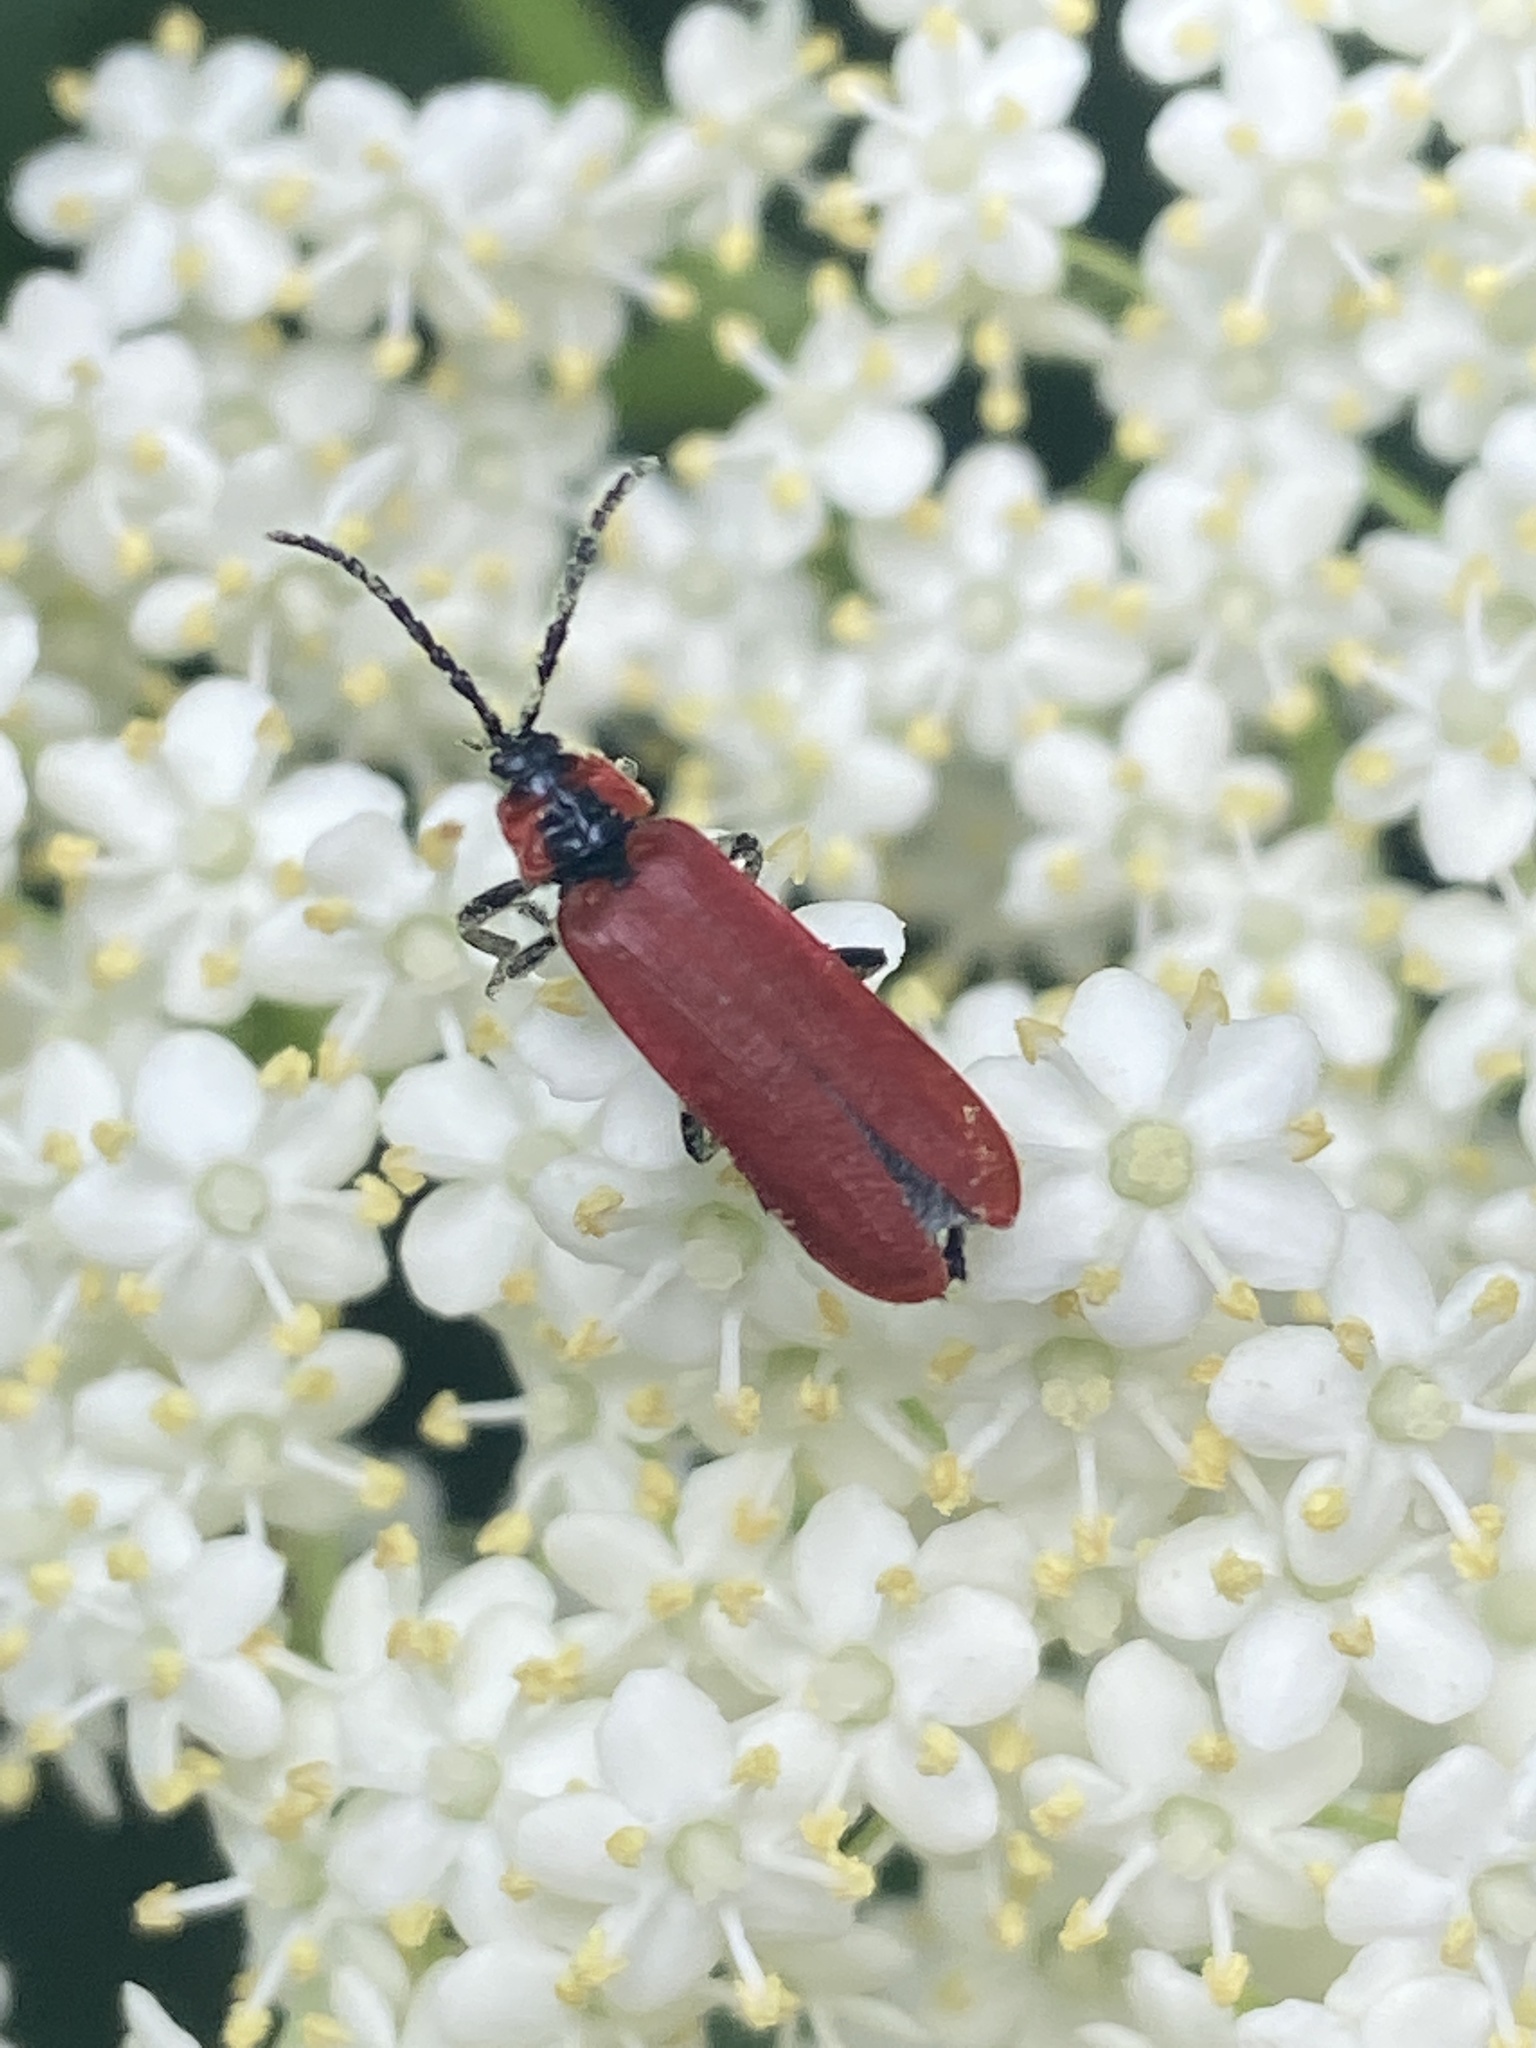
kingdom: Animalia
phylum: Arthropoda
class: Insecta
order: Coleoptera
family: Lycidae
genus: Lygistopterus
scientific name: Lygistopterus sanguineus
